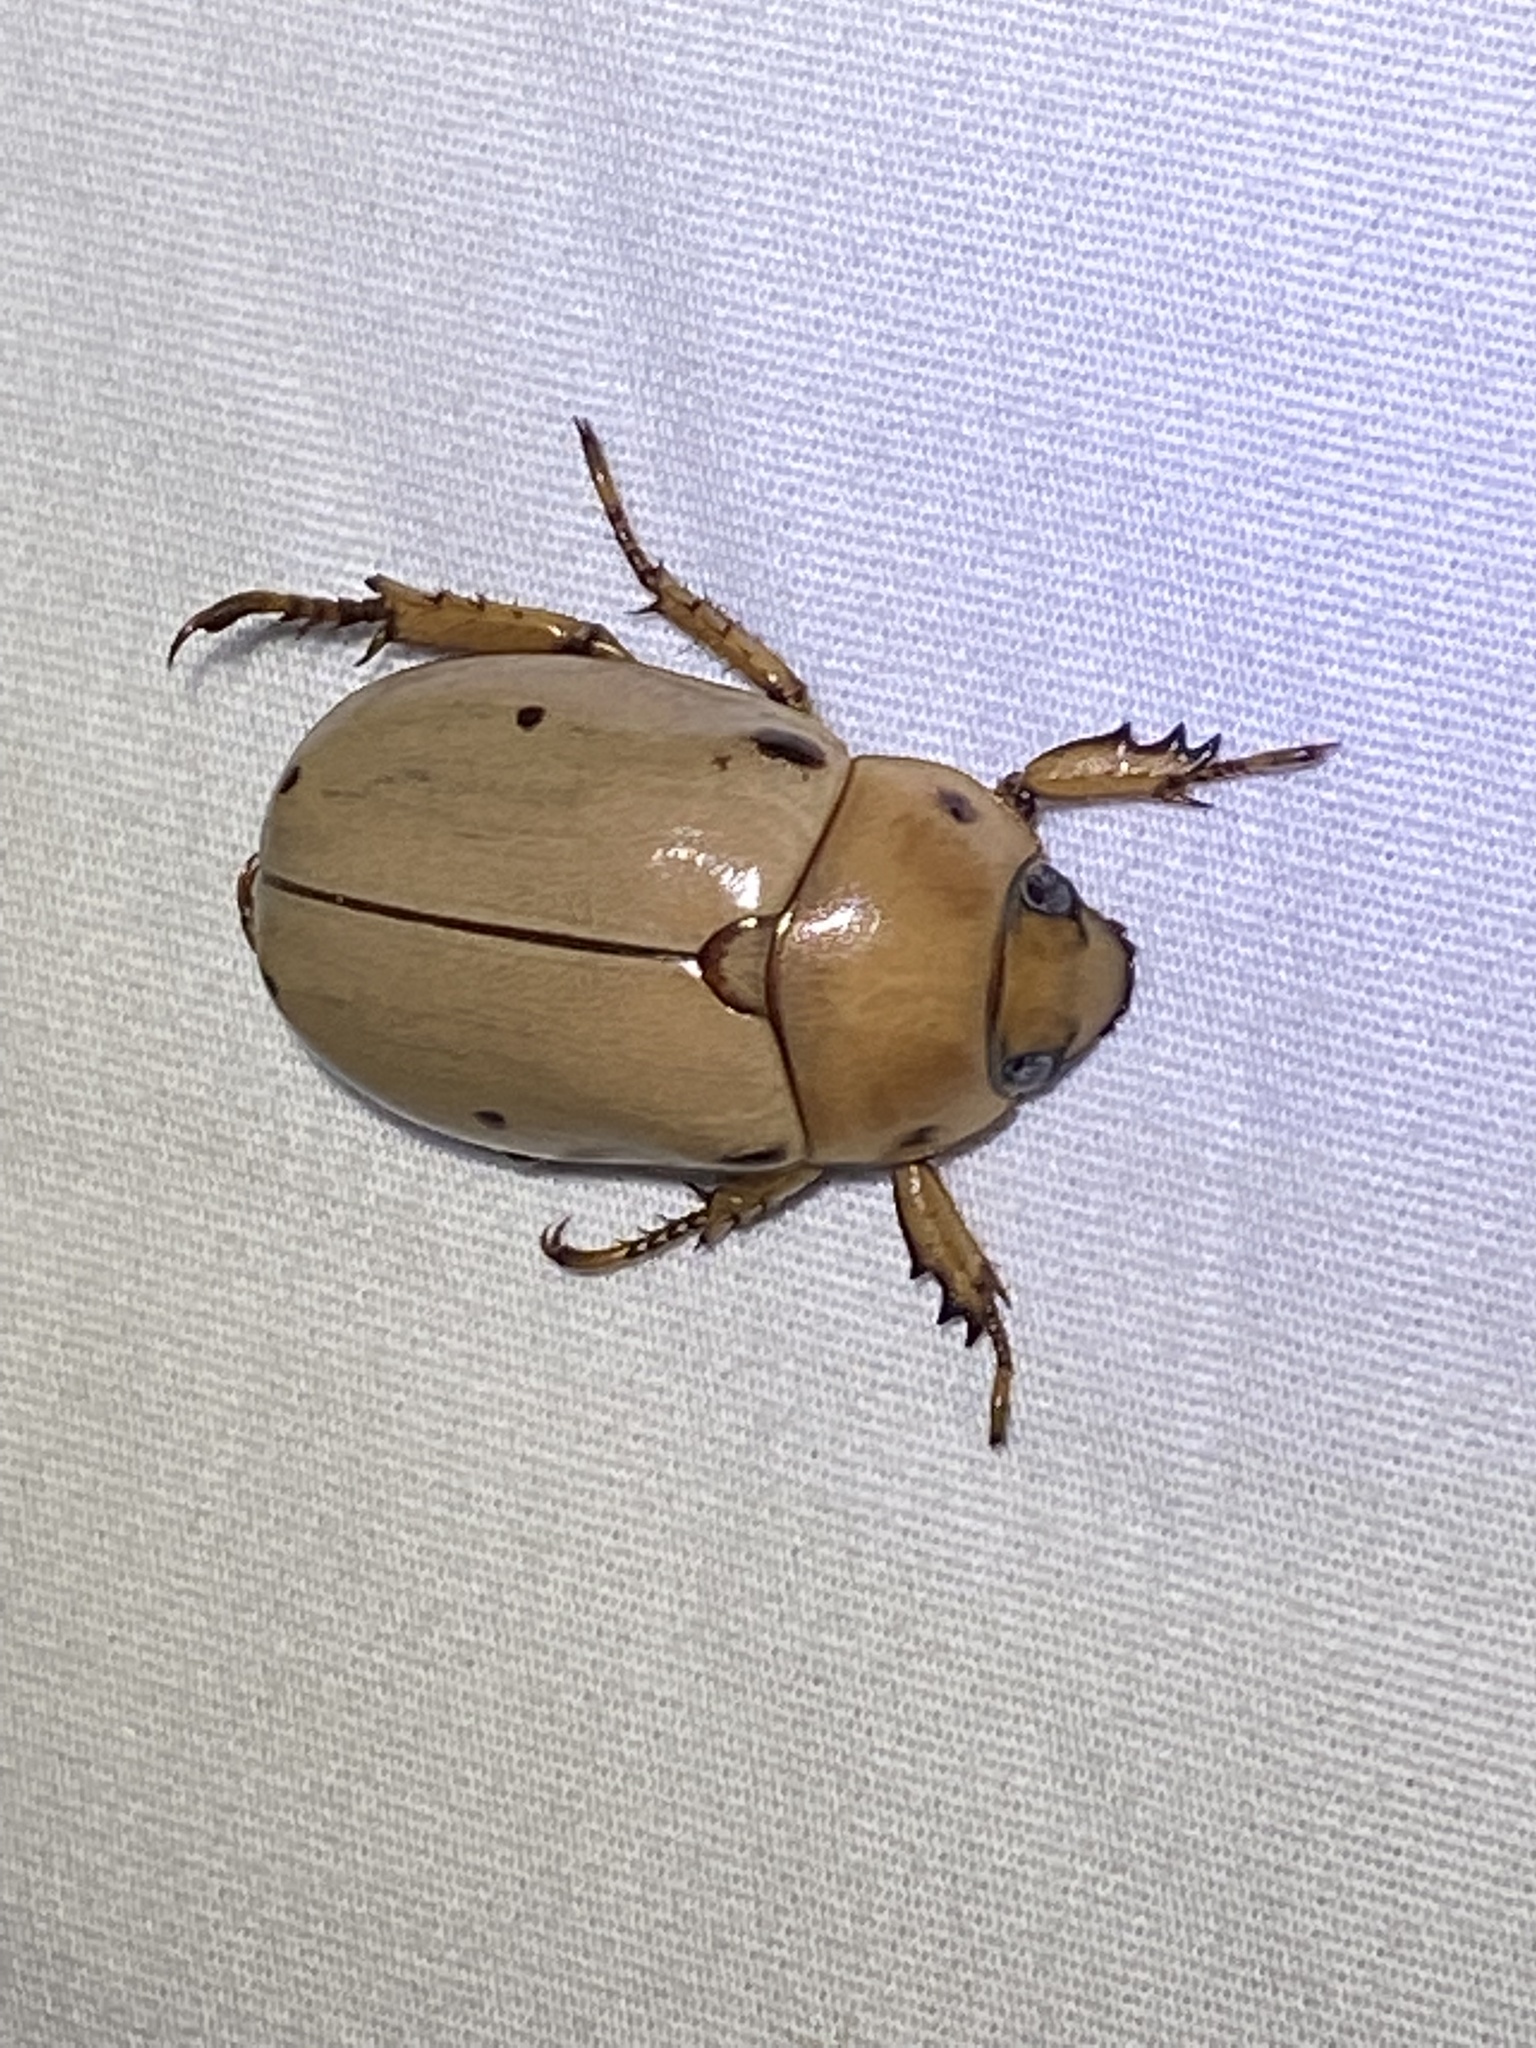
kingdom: Animalia
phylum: Arthropoda
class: Insecta
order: Coleoptera
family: Scarabaeidae
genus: Pelidnota
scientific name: Pelidnota punctata
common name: Grapevine beetle
